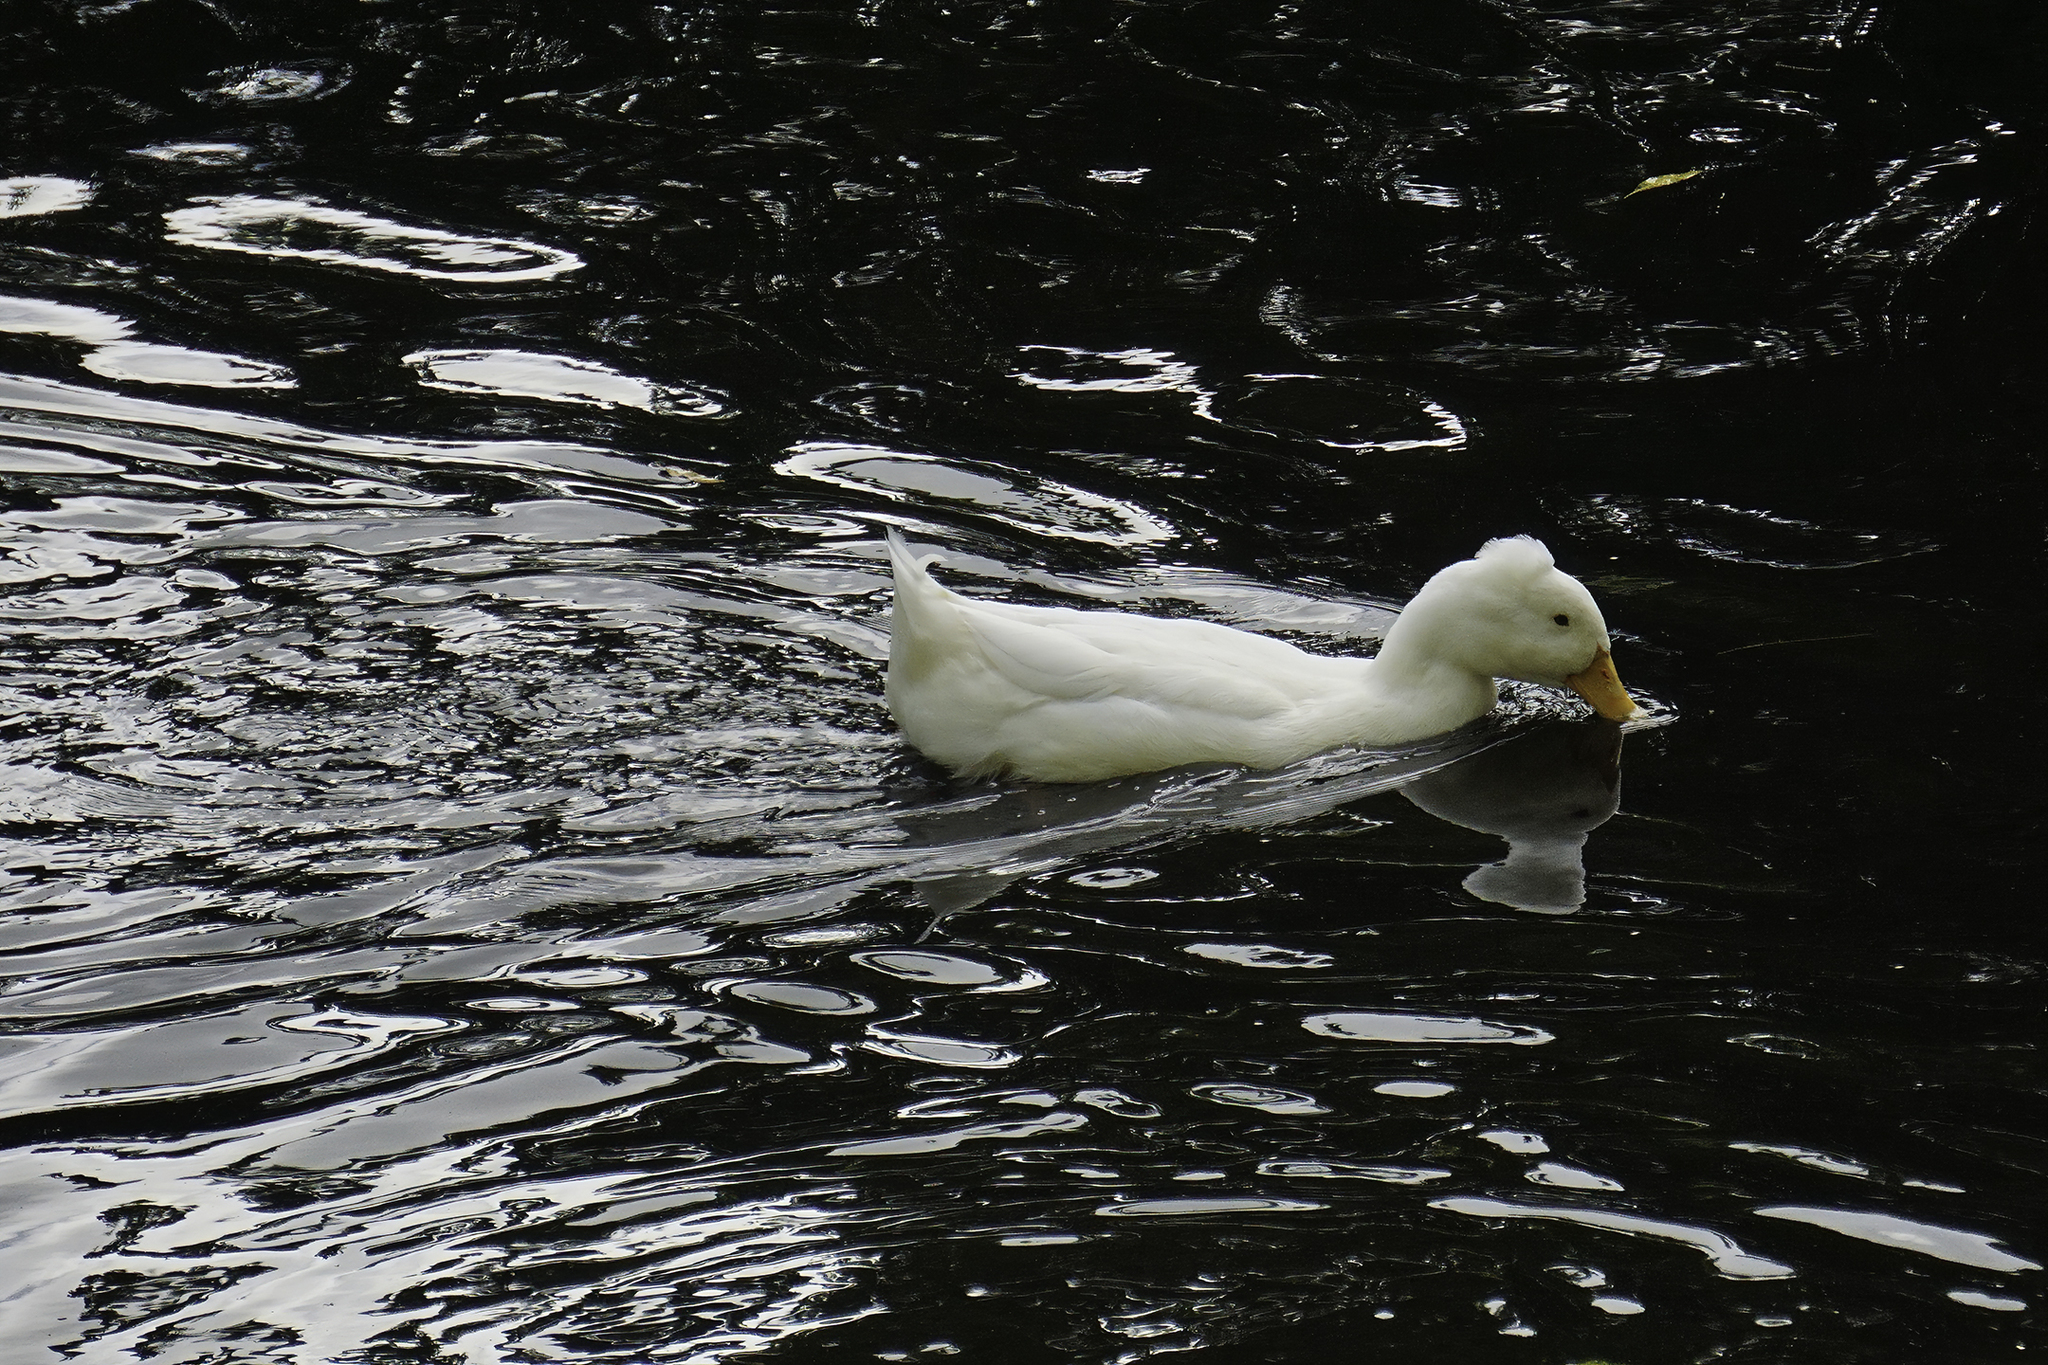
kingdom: Animalia
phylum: Chordata
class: Aves
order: Anseriformes
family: Anatidae
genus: Anas
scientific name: Anas platyrhynchos
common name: Mallard
